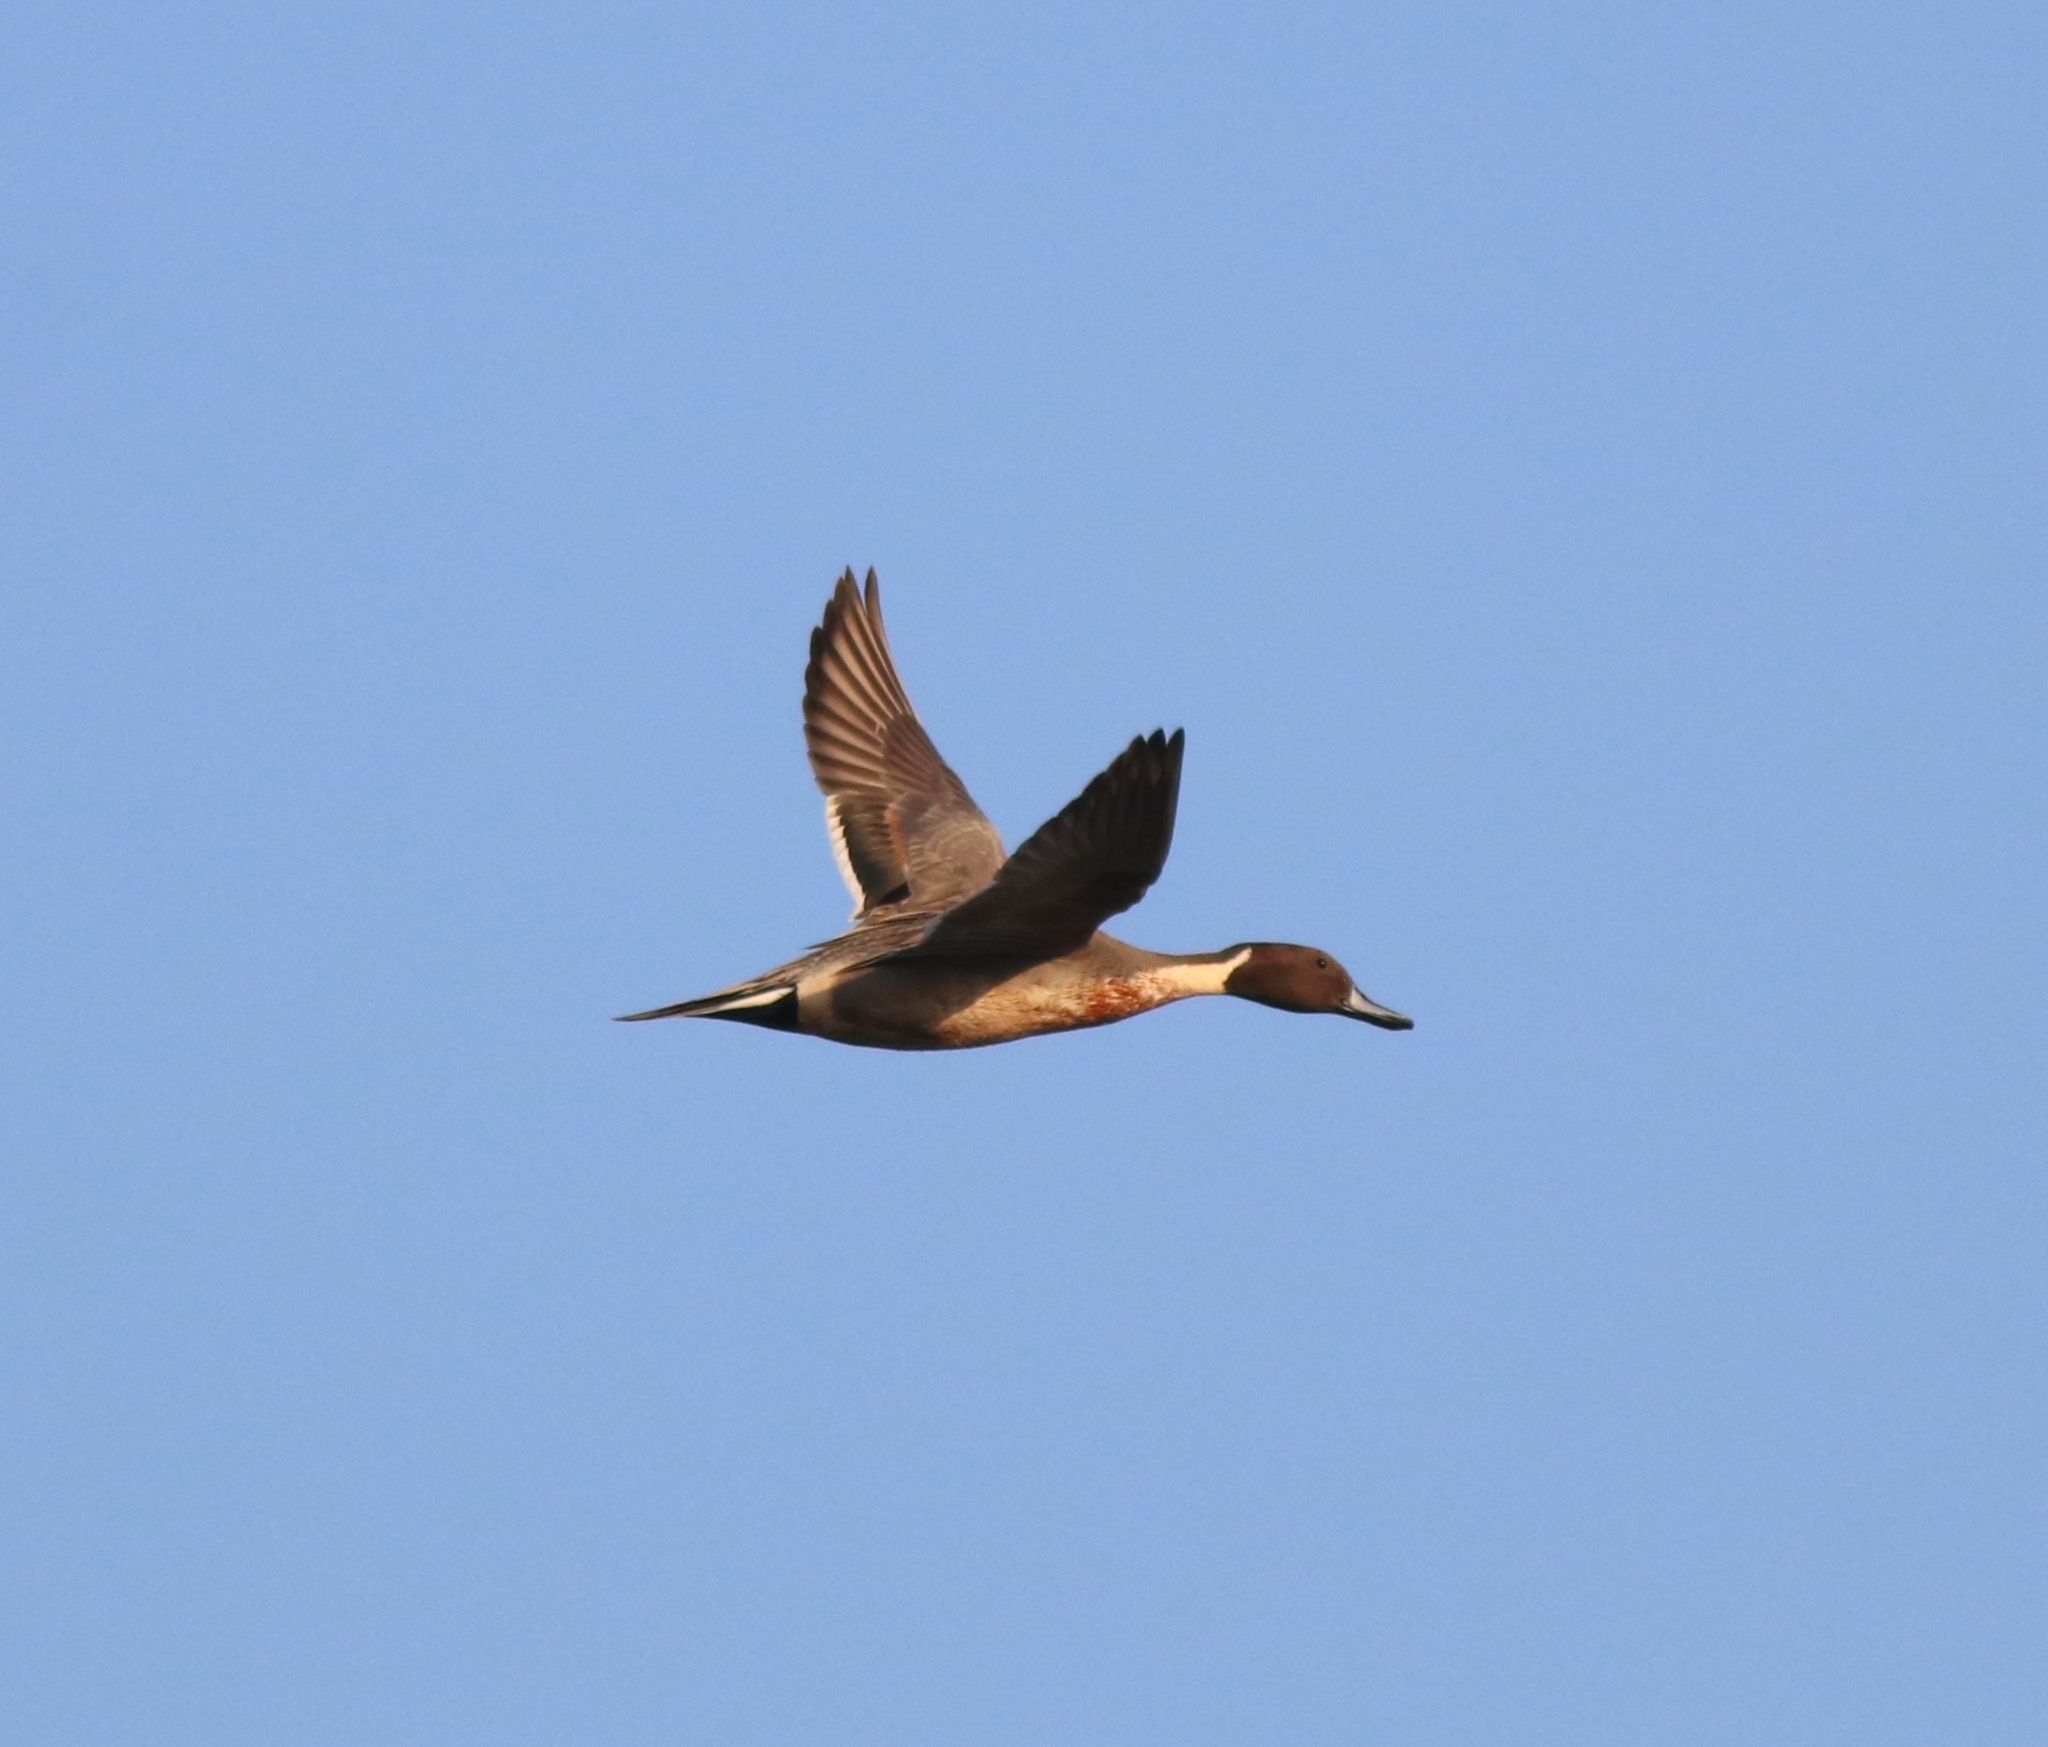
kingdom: Animalia
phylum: Chordata
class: Aves
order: Anseriformes
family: Anatidae
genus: Anas
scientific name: Anas acuta
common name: Northern pintail
